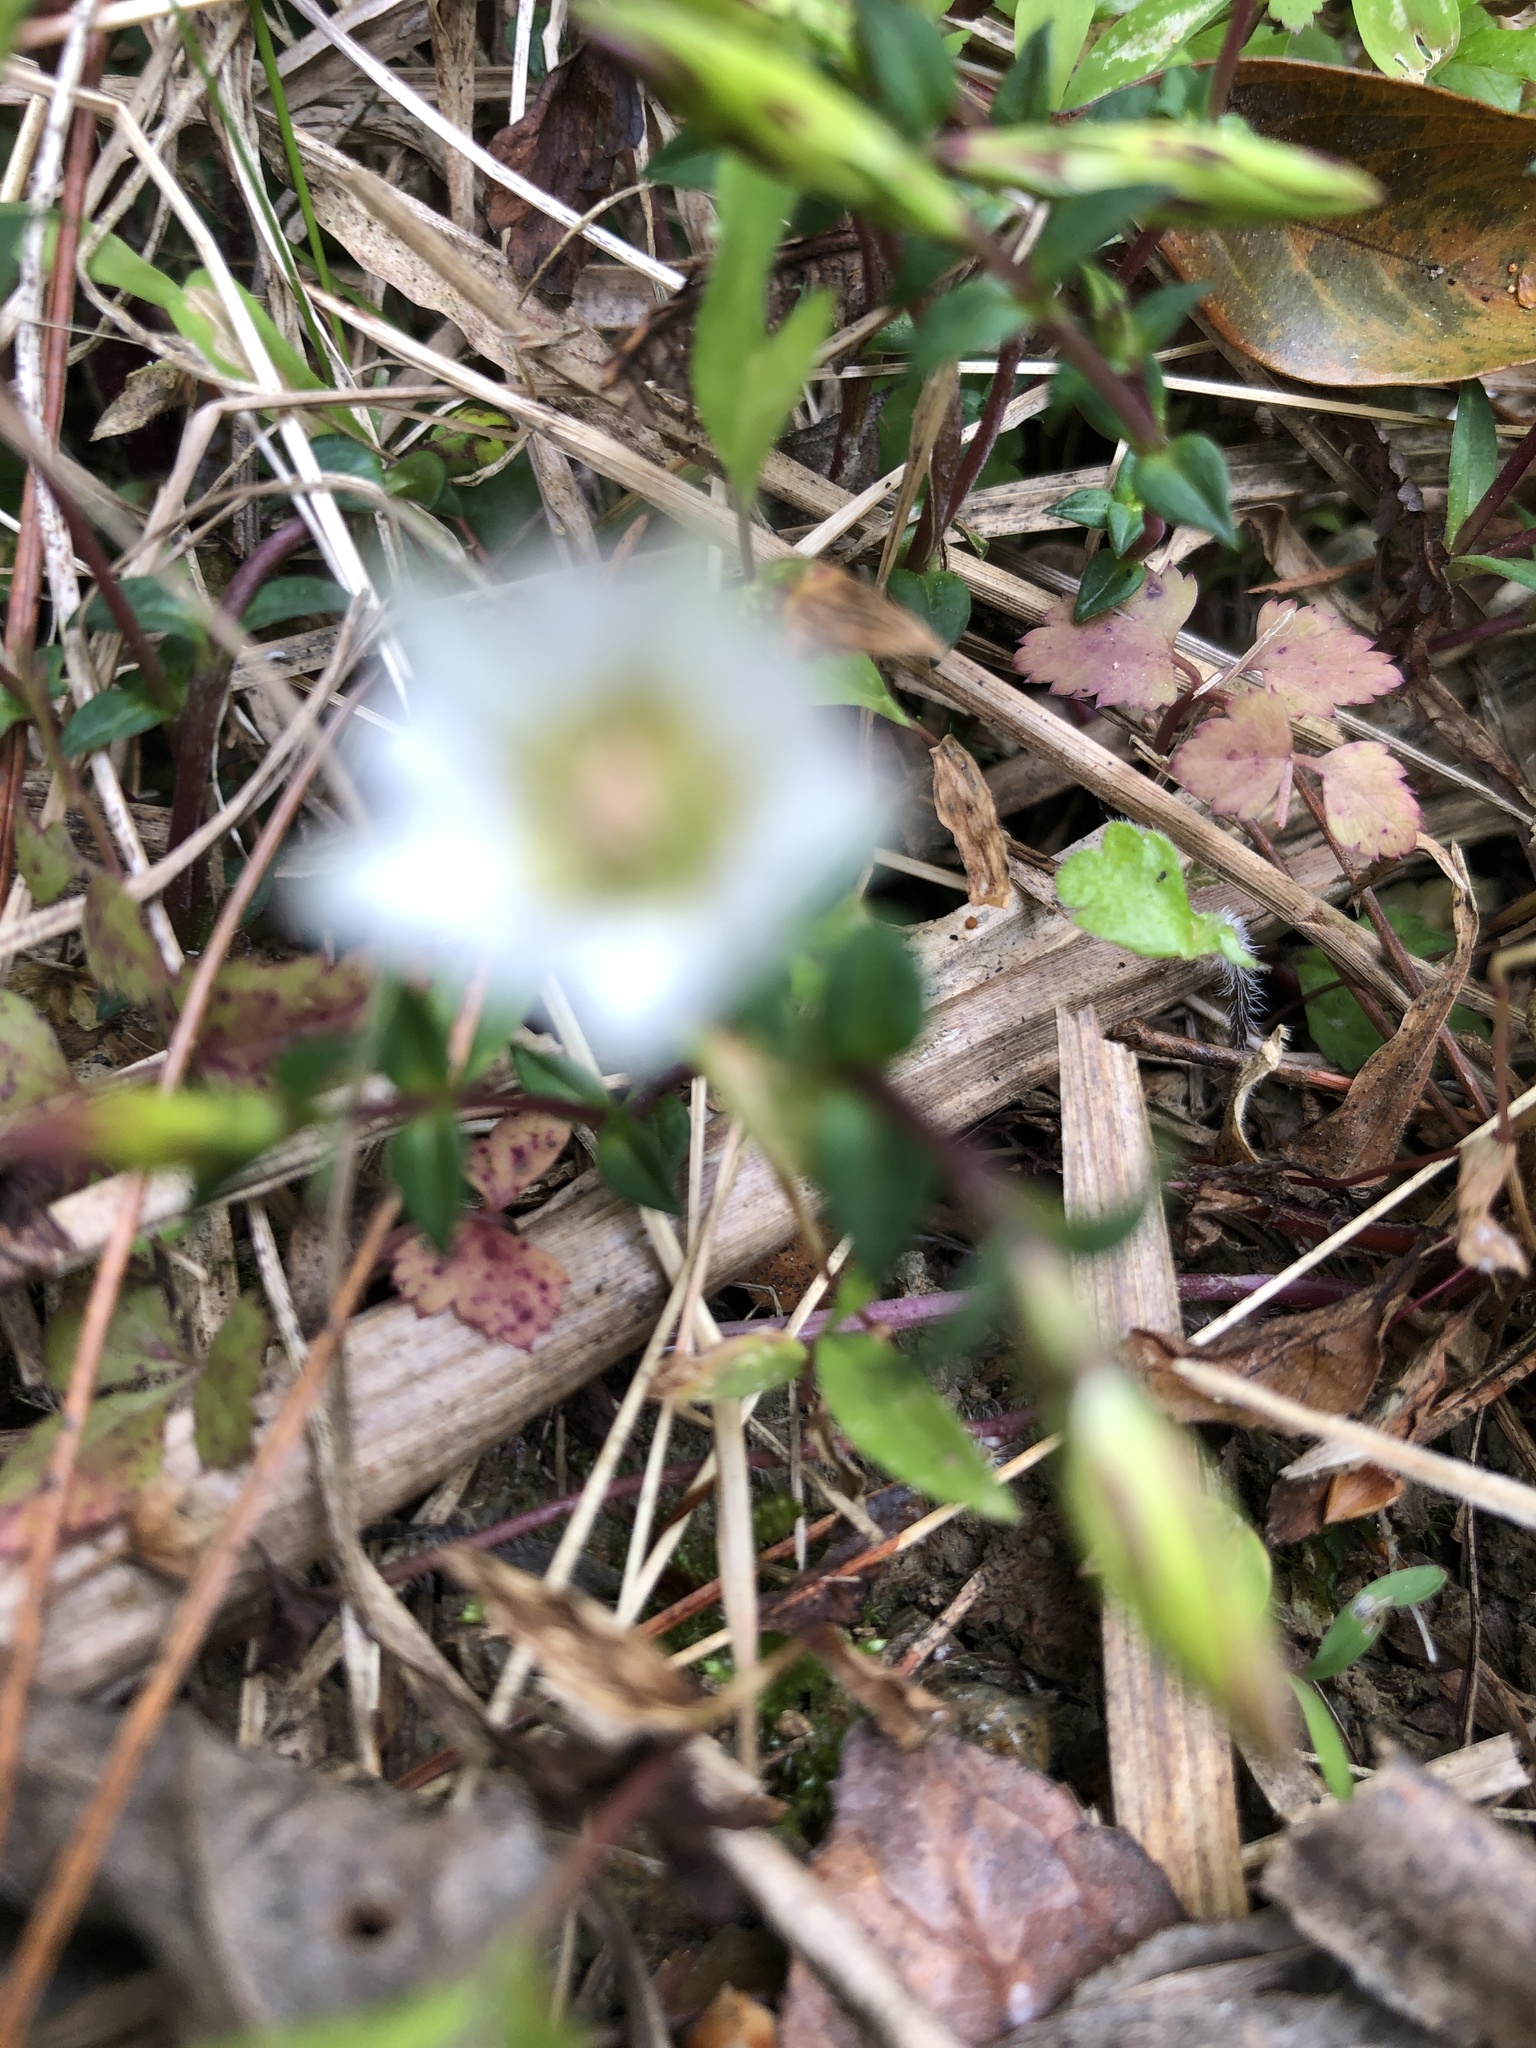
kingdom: Plantae
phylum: Tracheophyta
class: Magnoliopsida
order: Gentianales
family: Gentianaceae
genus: Gentiana
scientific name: Gentiana flavomaculata
